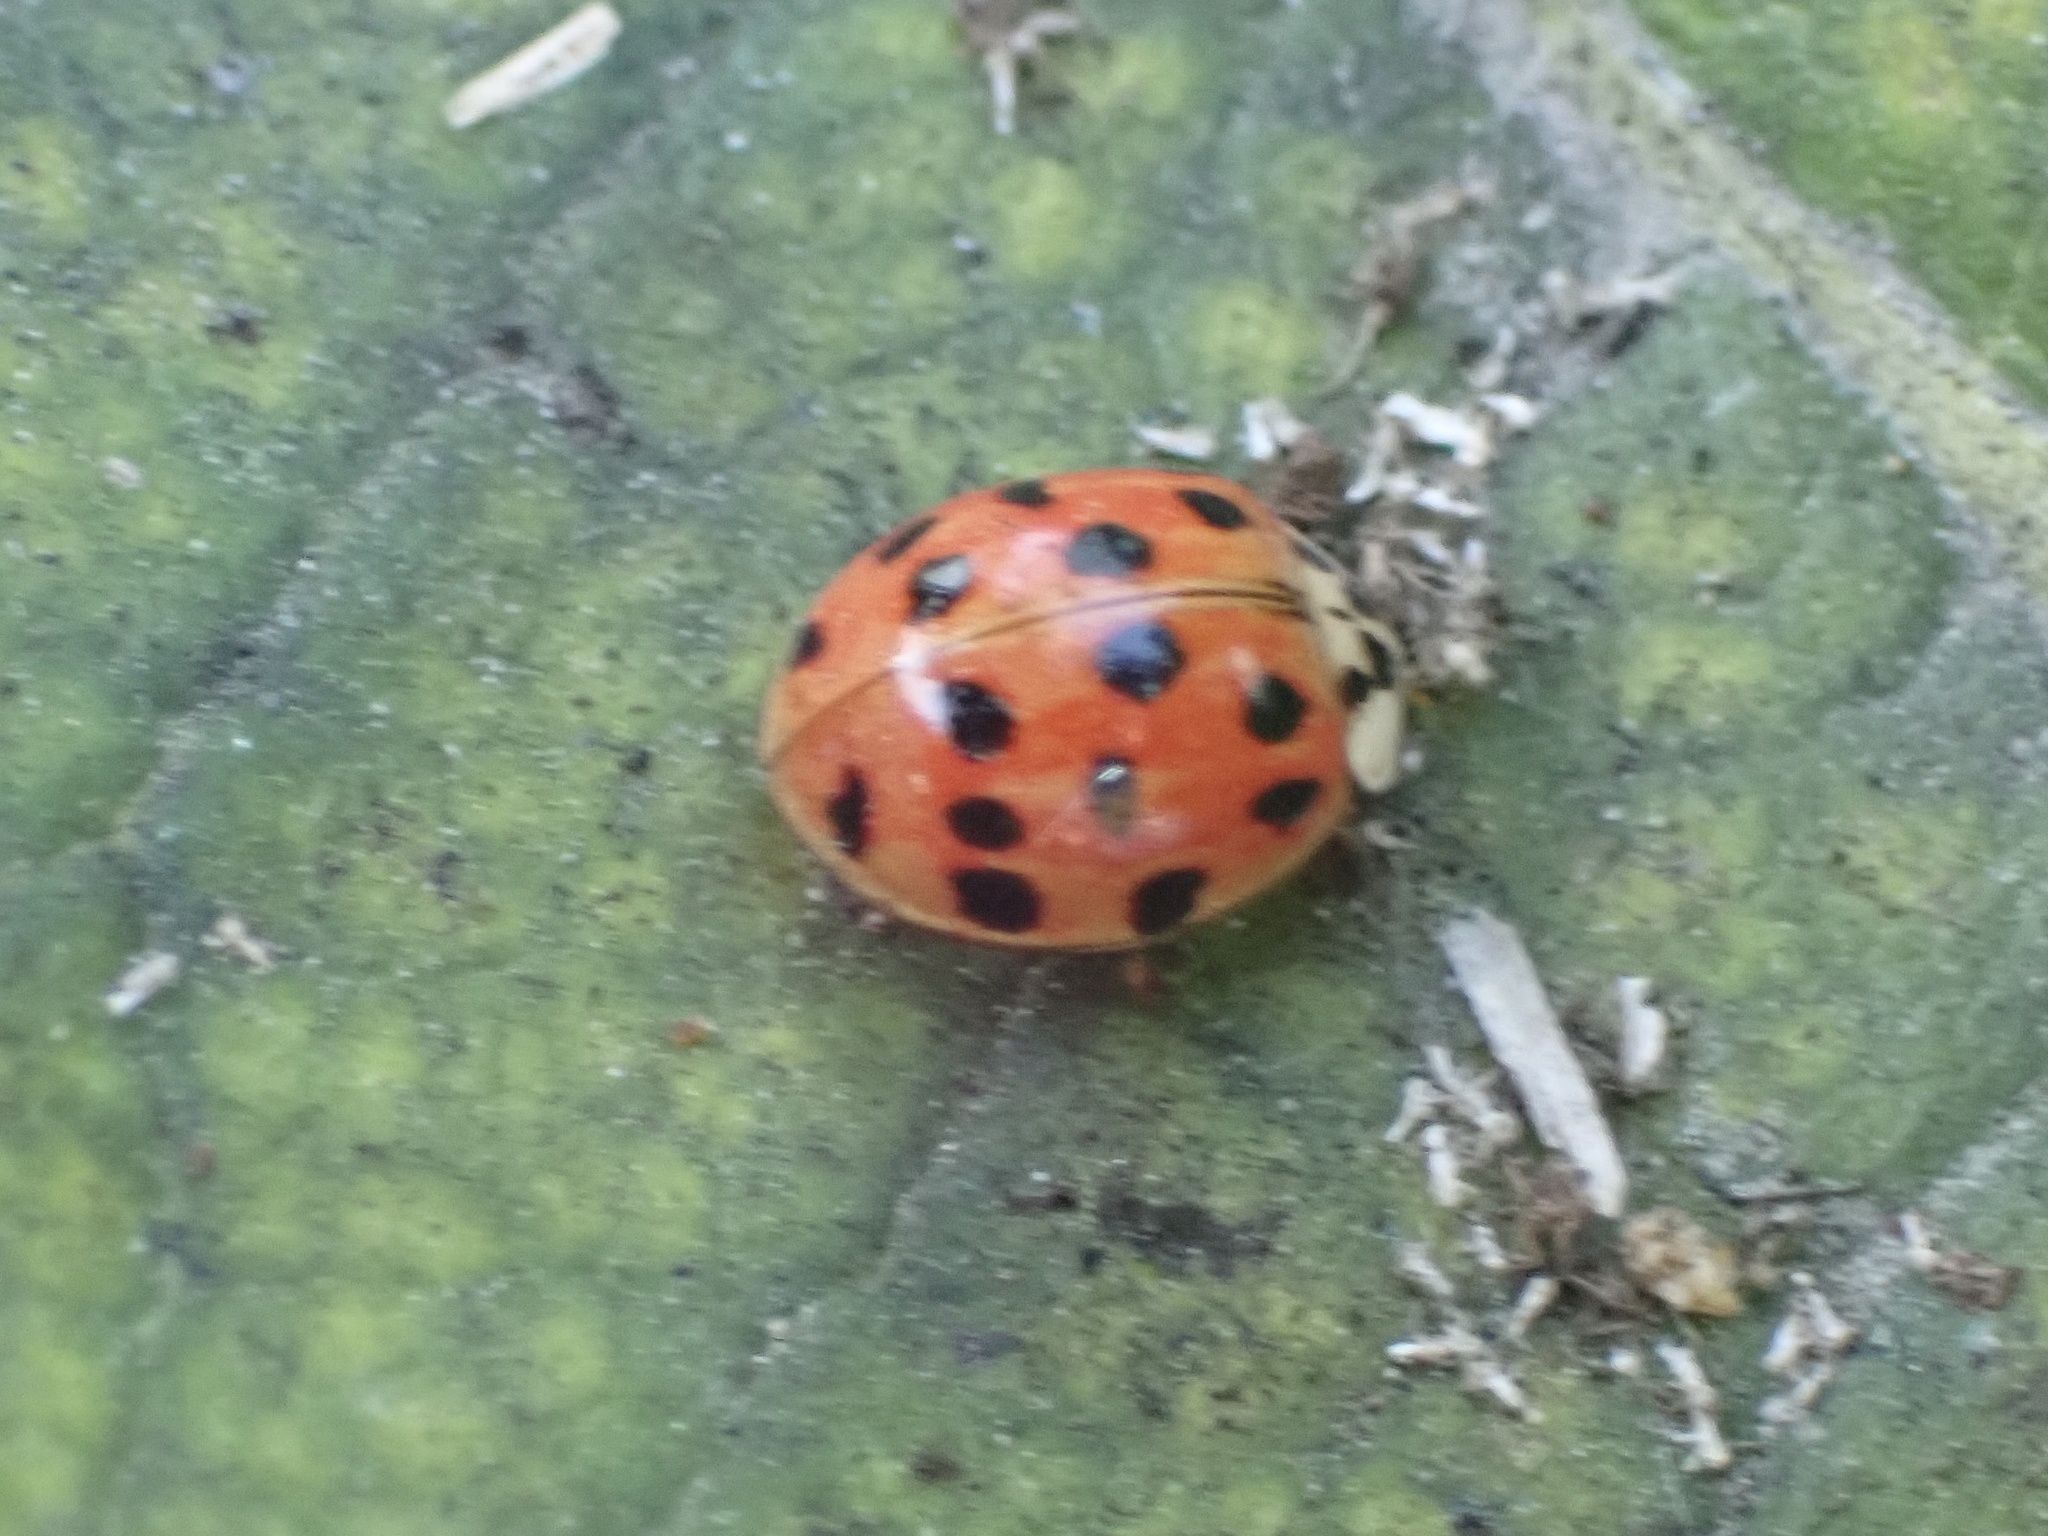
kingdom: Animalia
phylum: Arthropoda
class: Insecta
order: Coleoptera
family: Coccinellidae
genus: Harmonia
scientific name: Harmonia axyridis
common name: Harlequin ladybird
